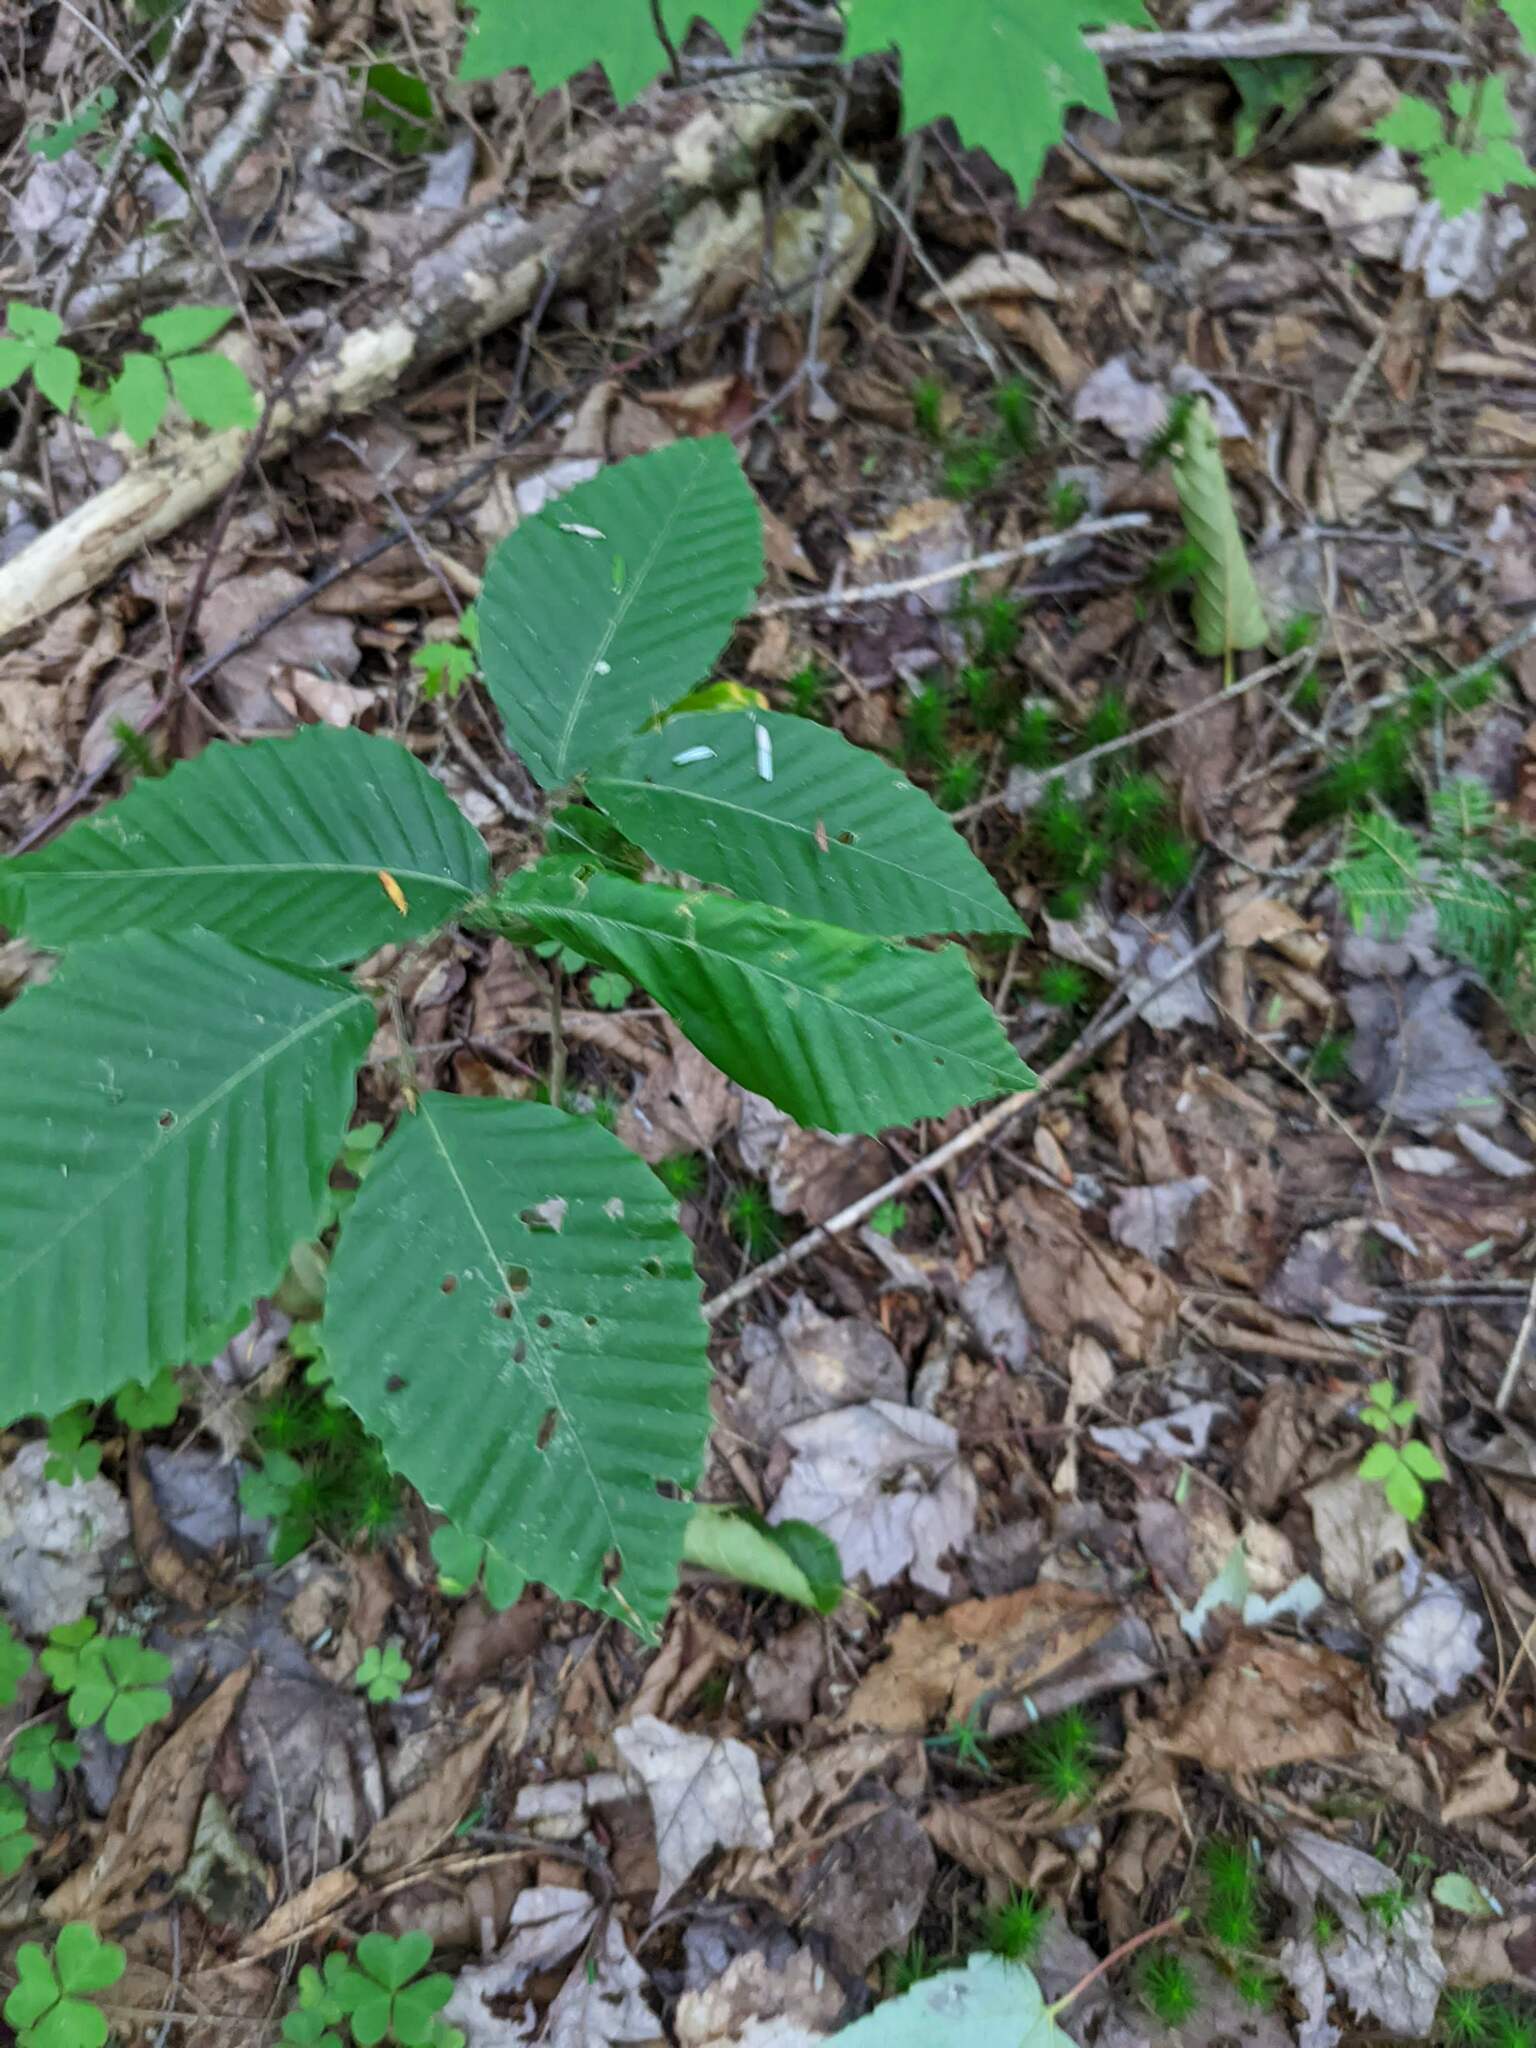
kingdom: Plantae
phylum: Tracheophyta
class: Magnoliopsida
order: Fagales
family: Fagaceae
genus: Fagus
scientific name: Fagus grandifolia
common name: American beech
